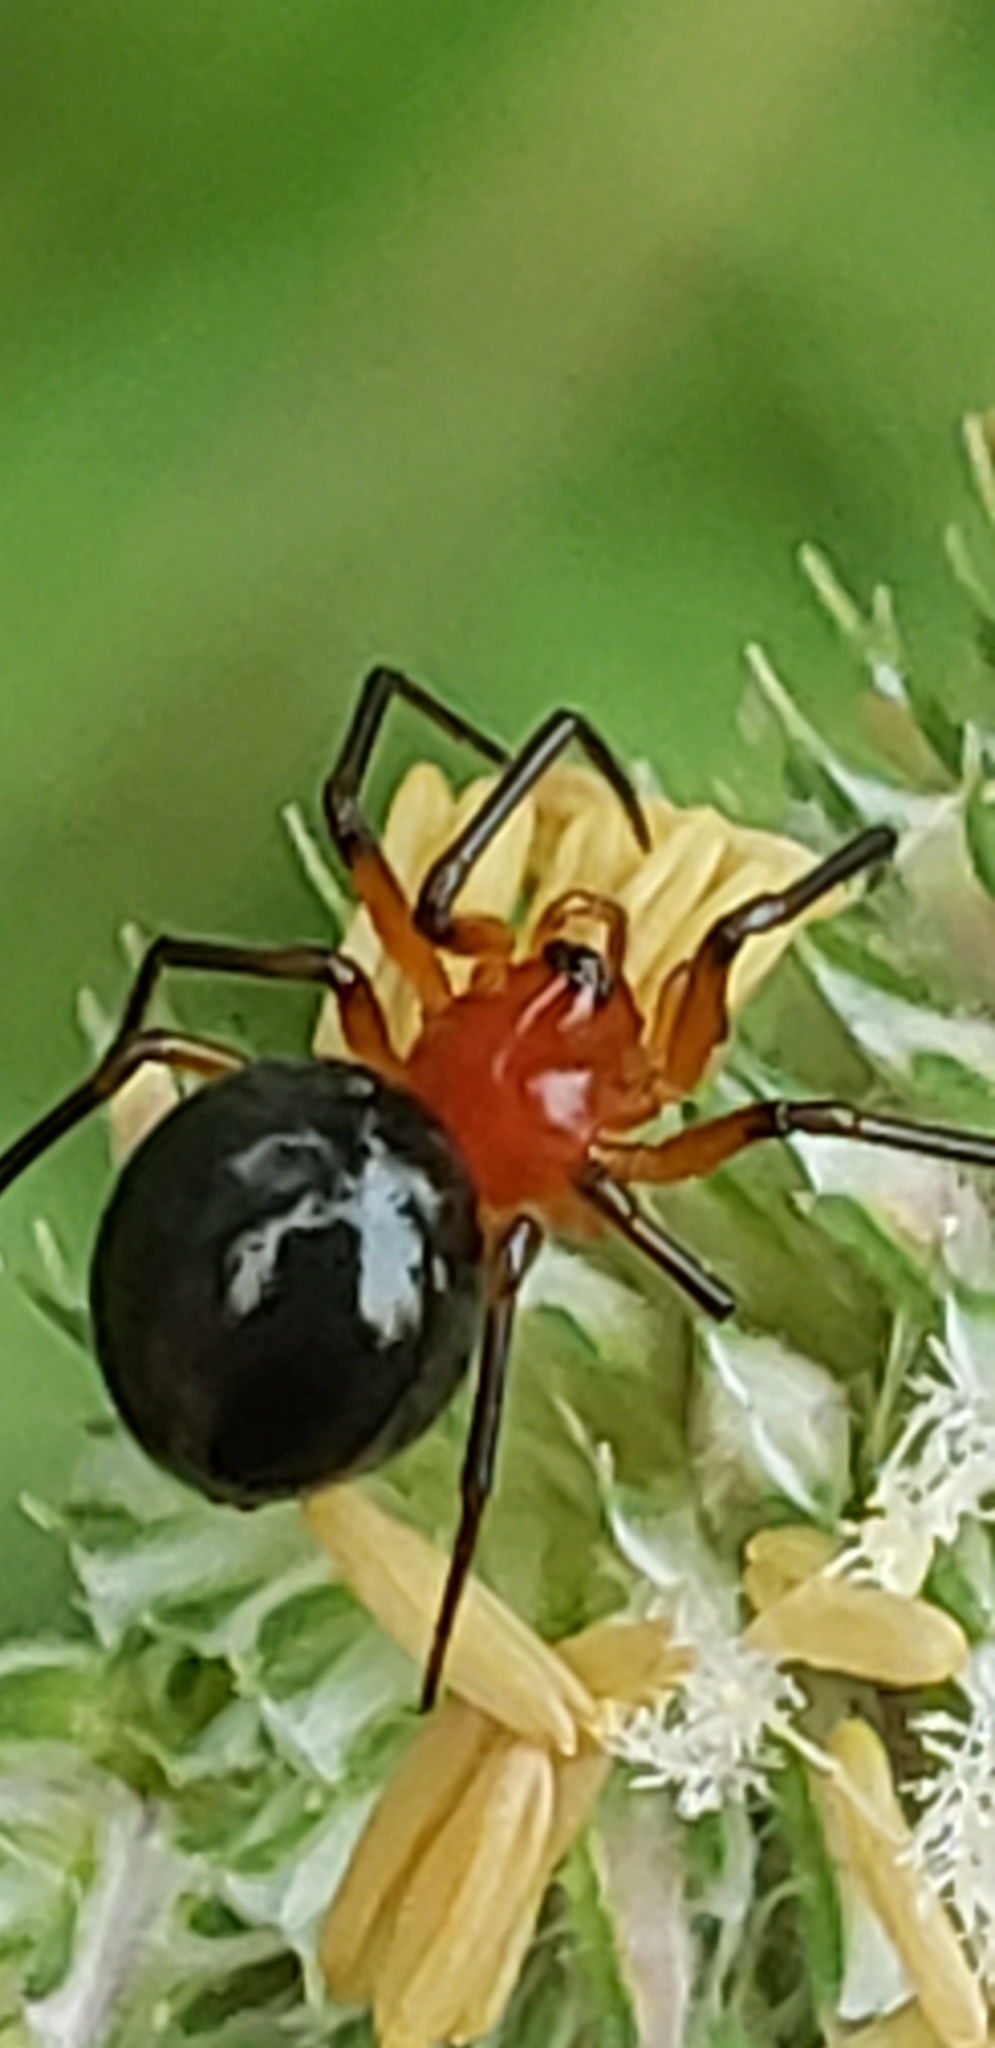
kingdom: Animalia
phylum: Arthropoda
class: Arachnida
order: Araneae
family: Linyphiidae
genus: Hypselistes
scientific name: Hypselistes florens
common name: Peatland sheetweb weaver
